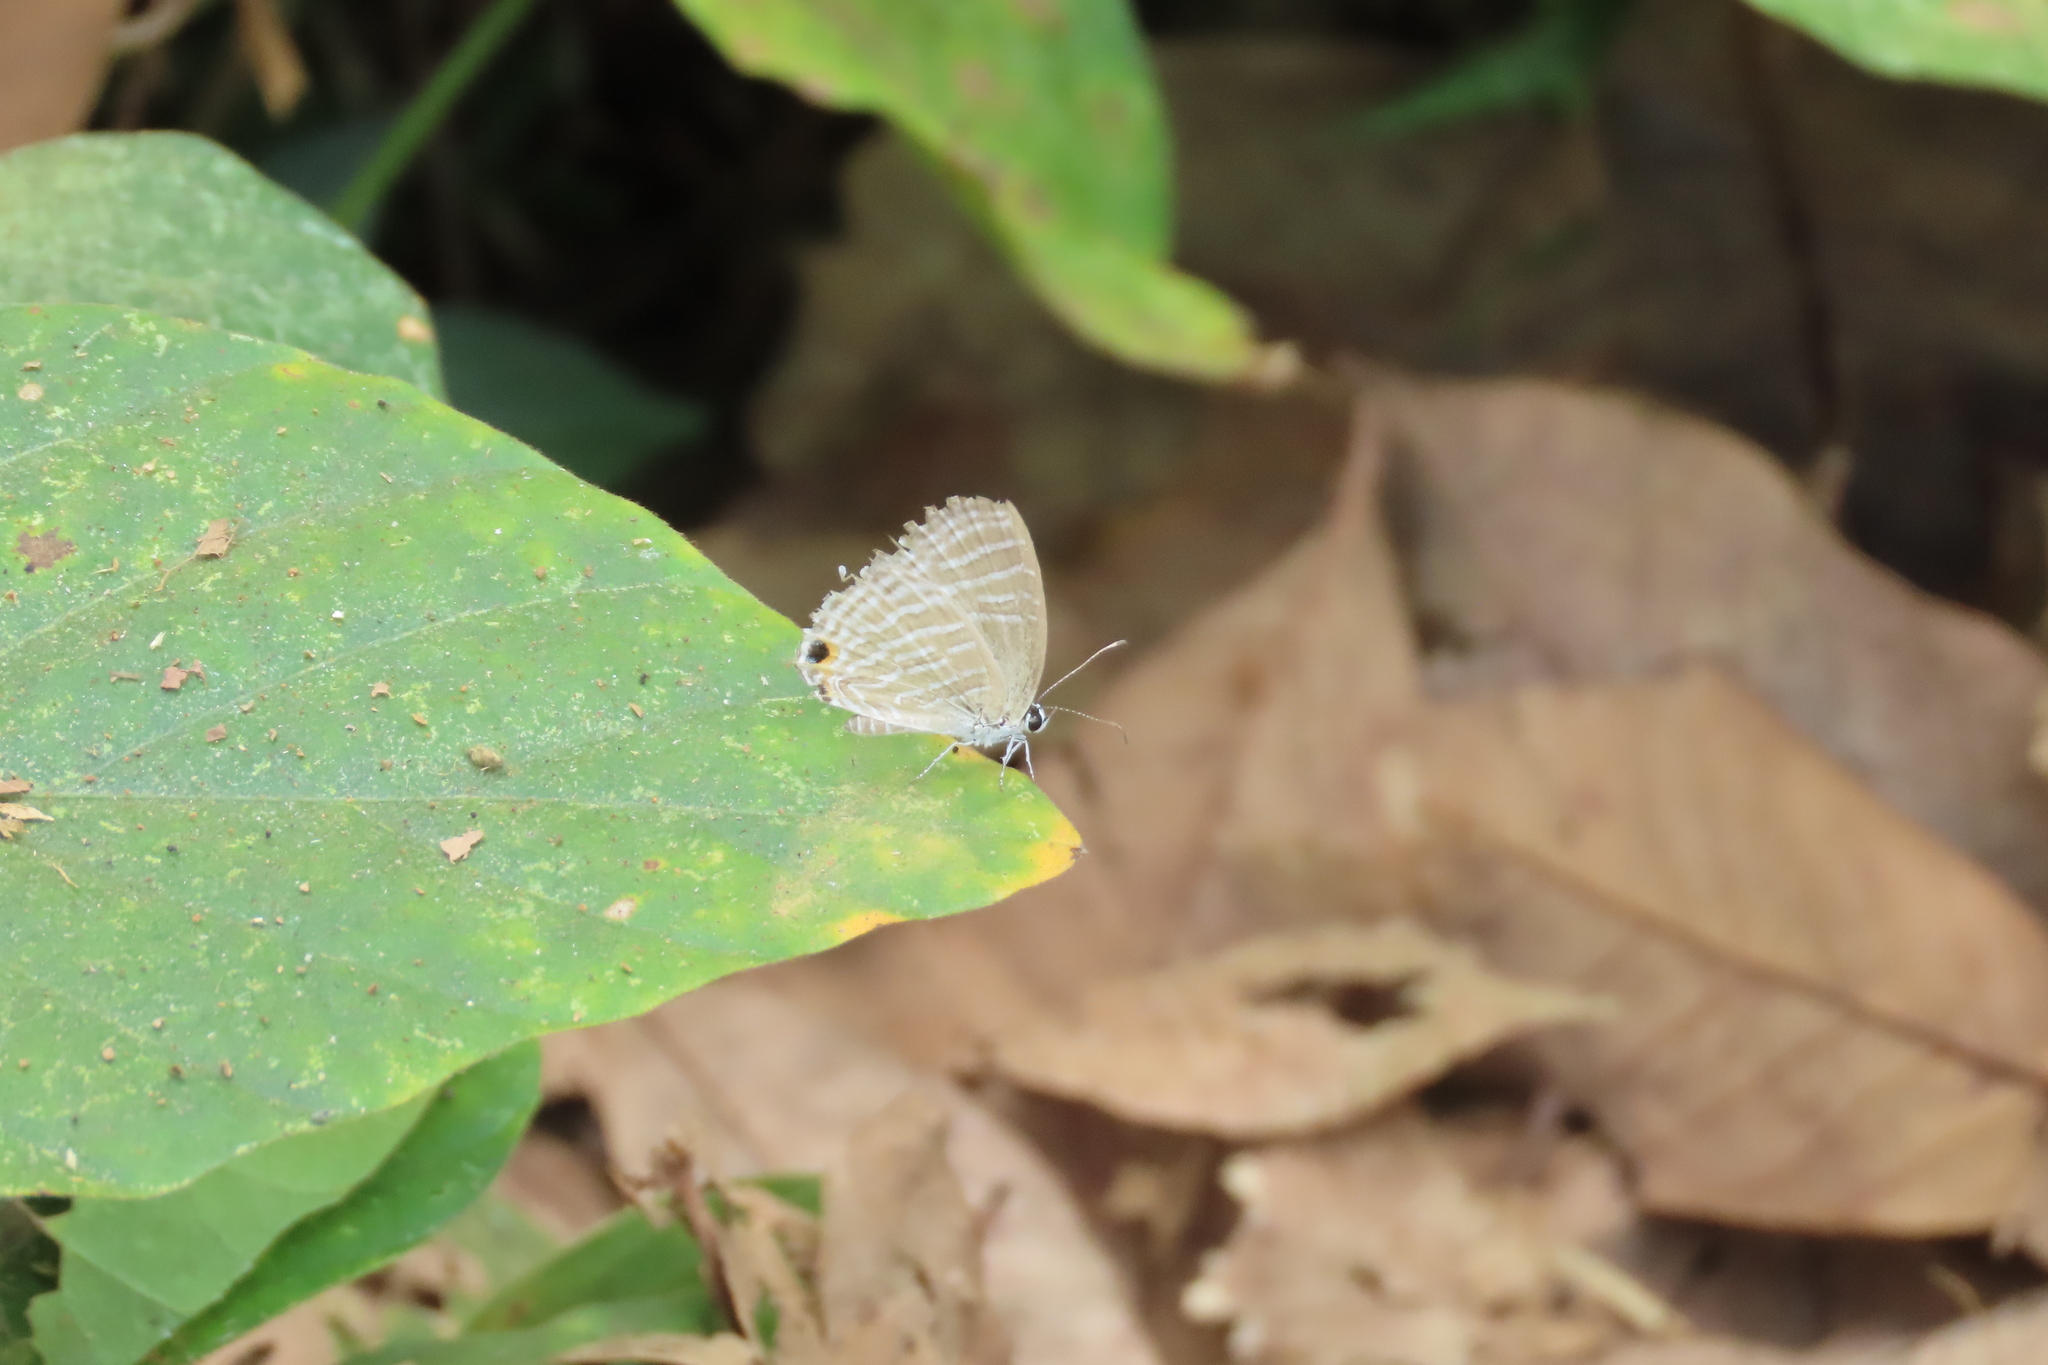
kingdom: Animalia
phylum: Arthropoda
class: Insecta
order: Lepidoptera
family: Lycaenidae
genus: Jamides
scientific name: Jamides celeno
